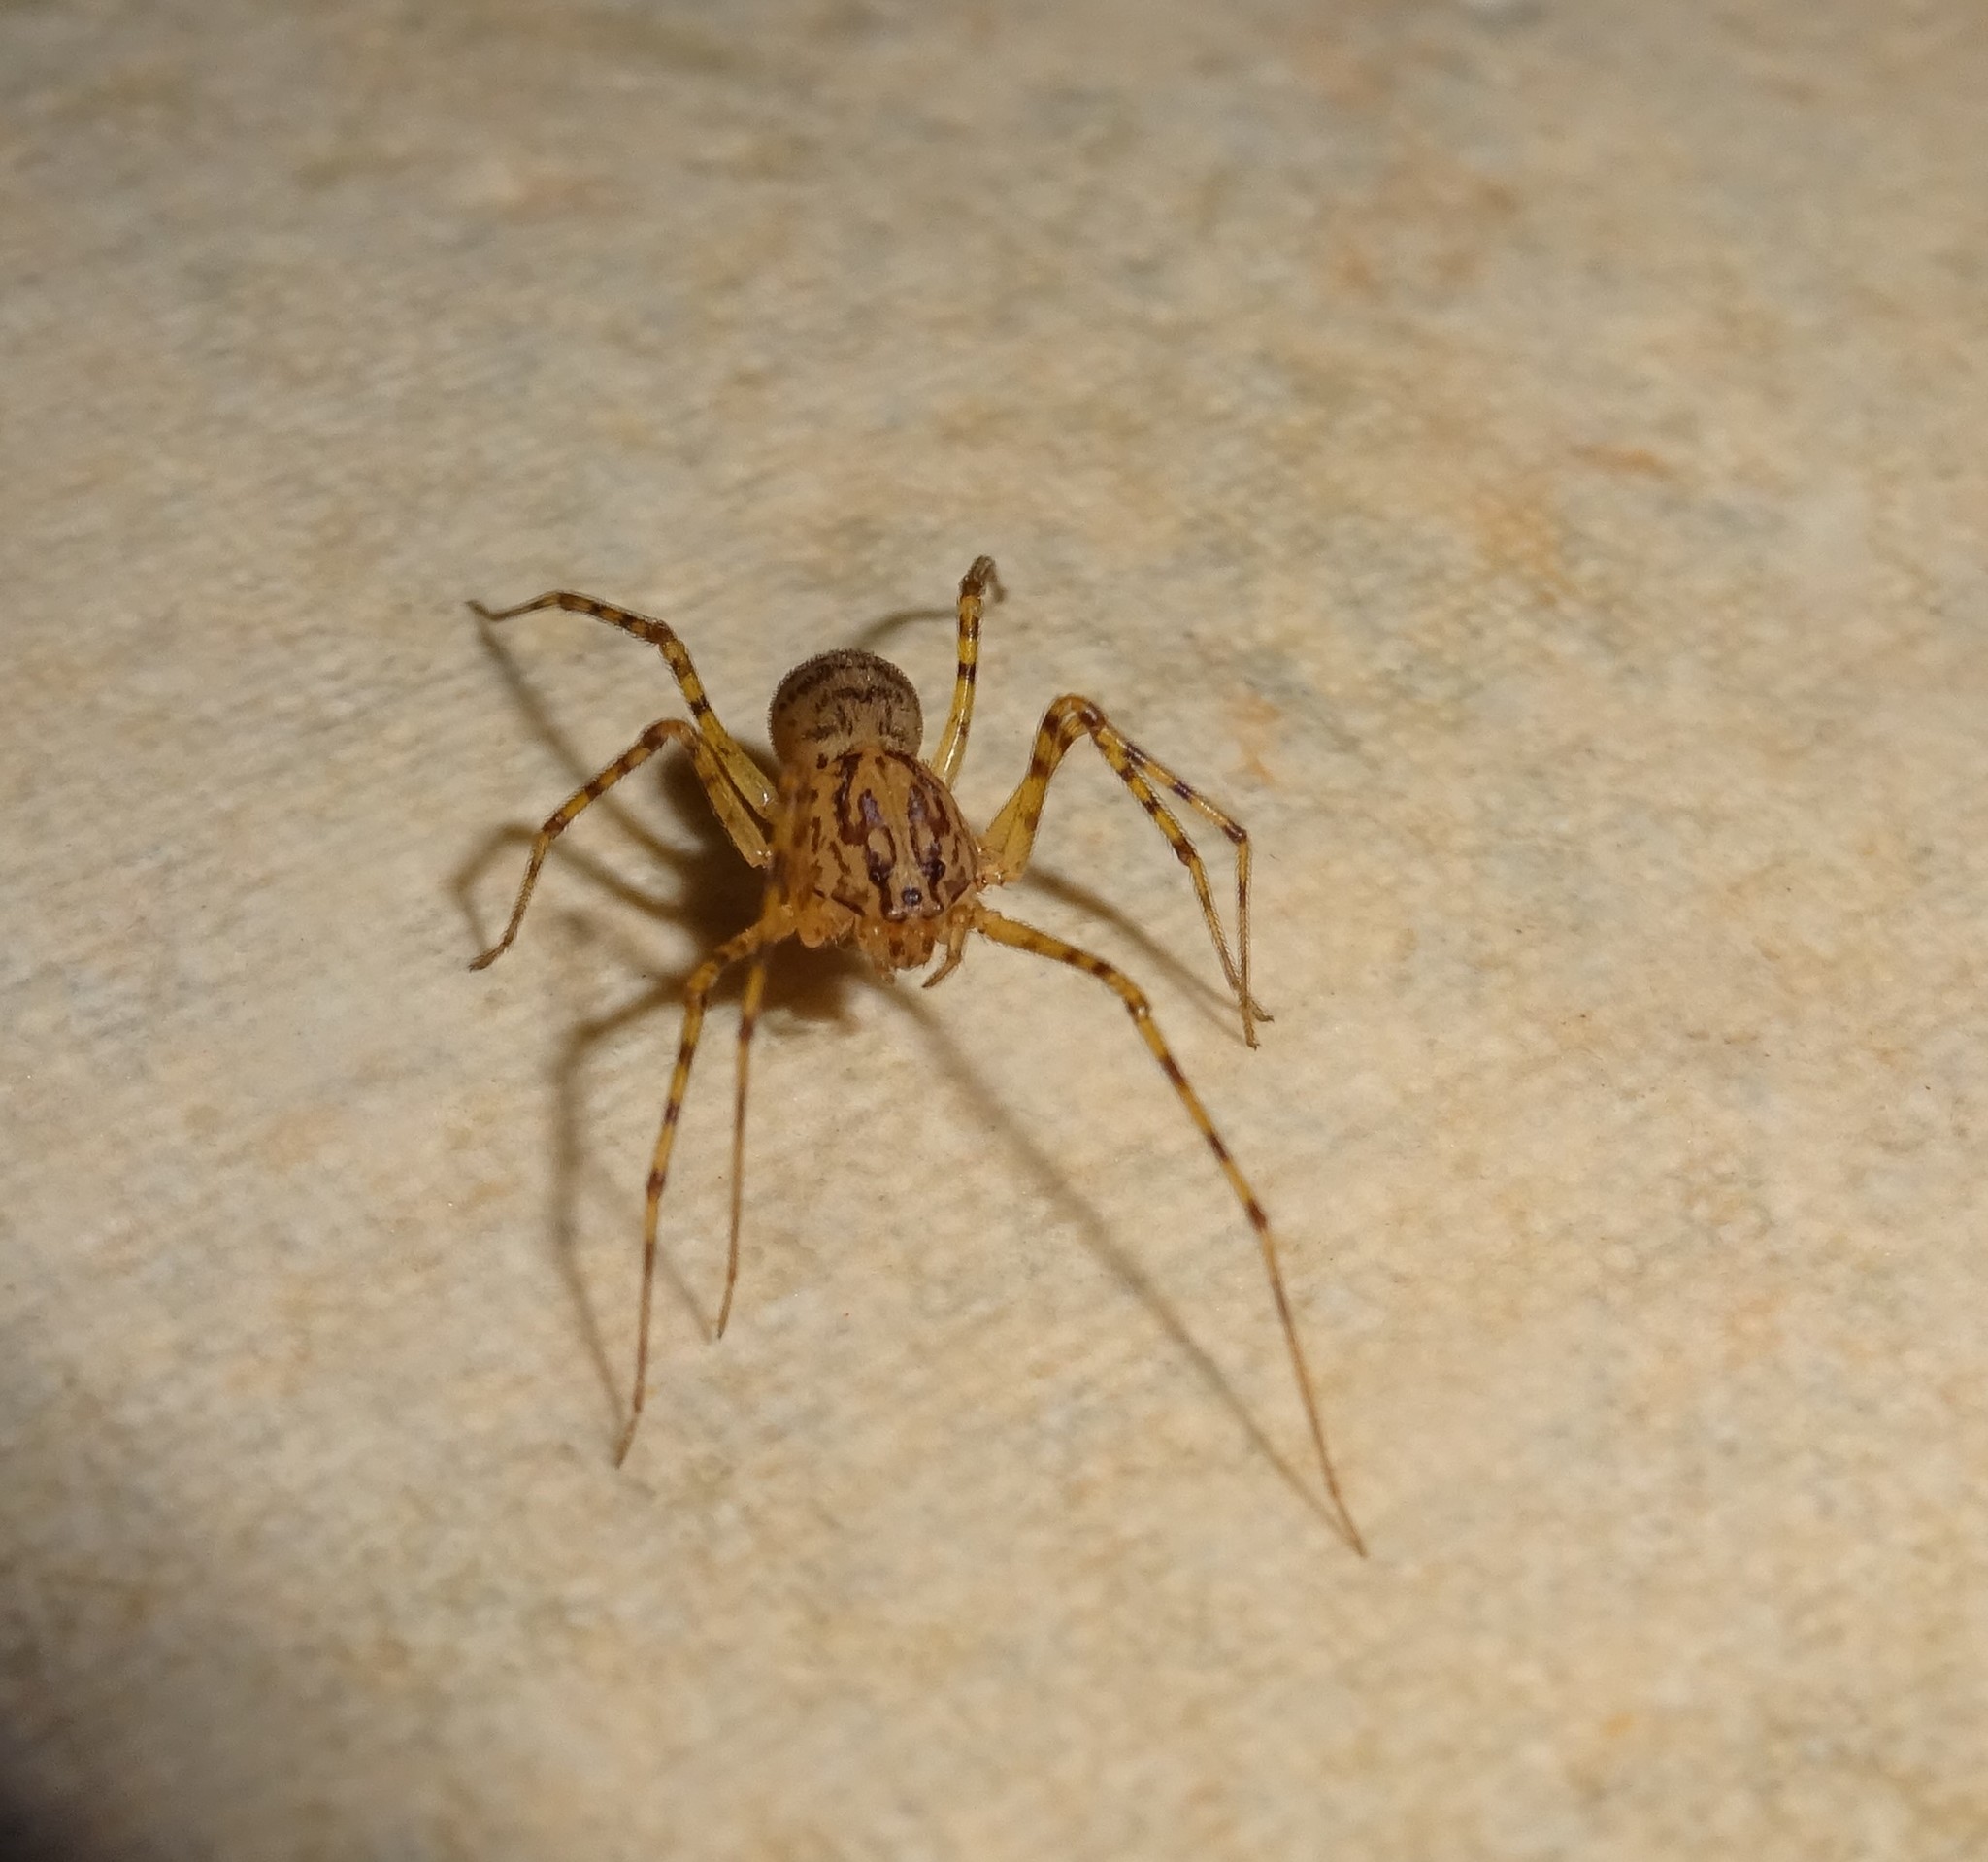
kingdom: Animalia
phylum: Arthropoda
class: Arachnida
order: Araneae
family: Scytodidae
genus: Scytodes
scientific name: Scytodes thoracica
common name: Spitting spider
